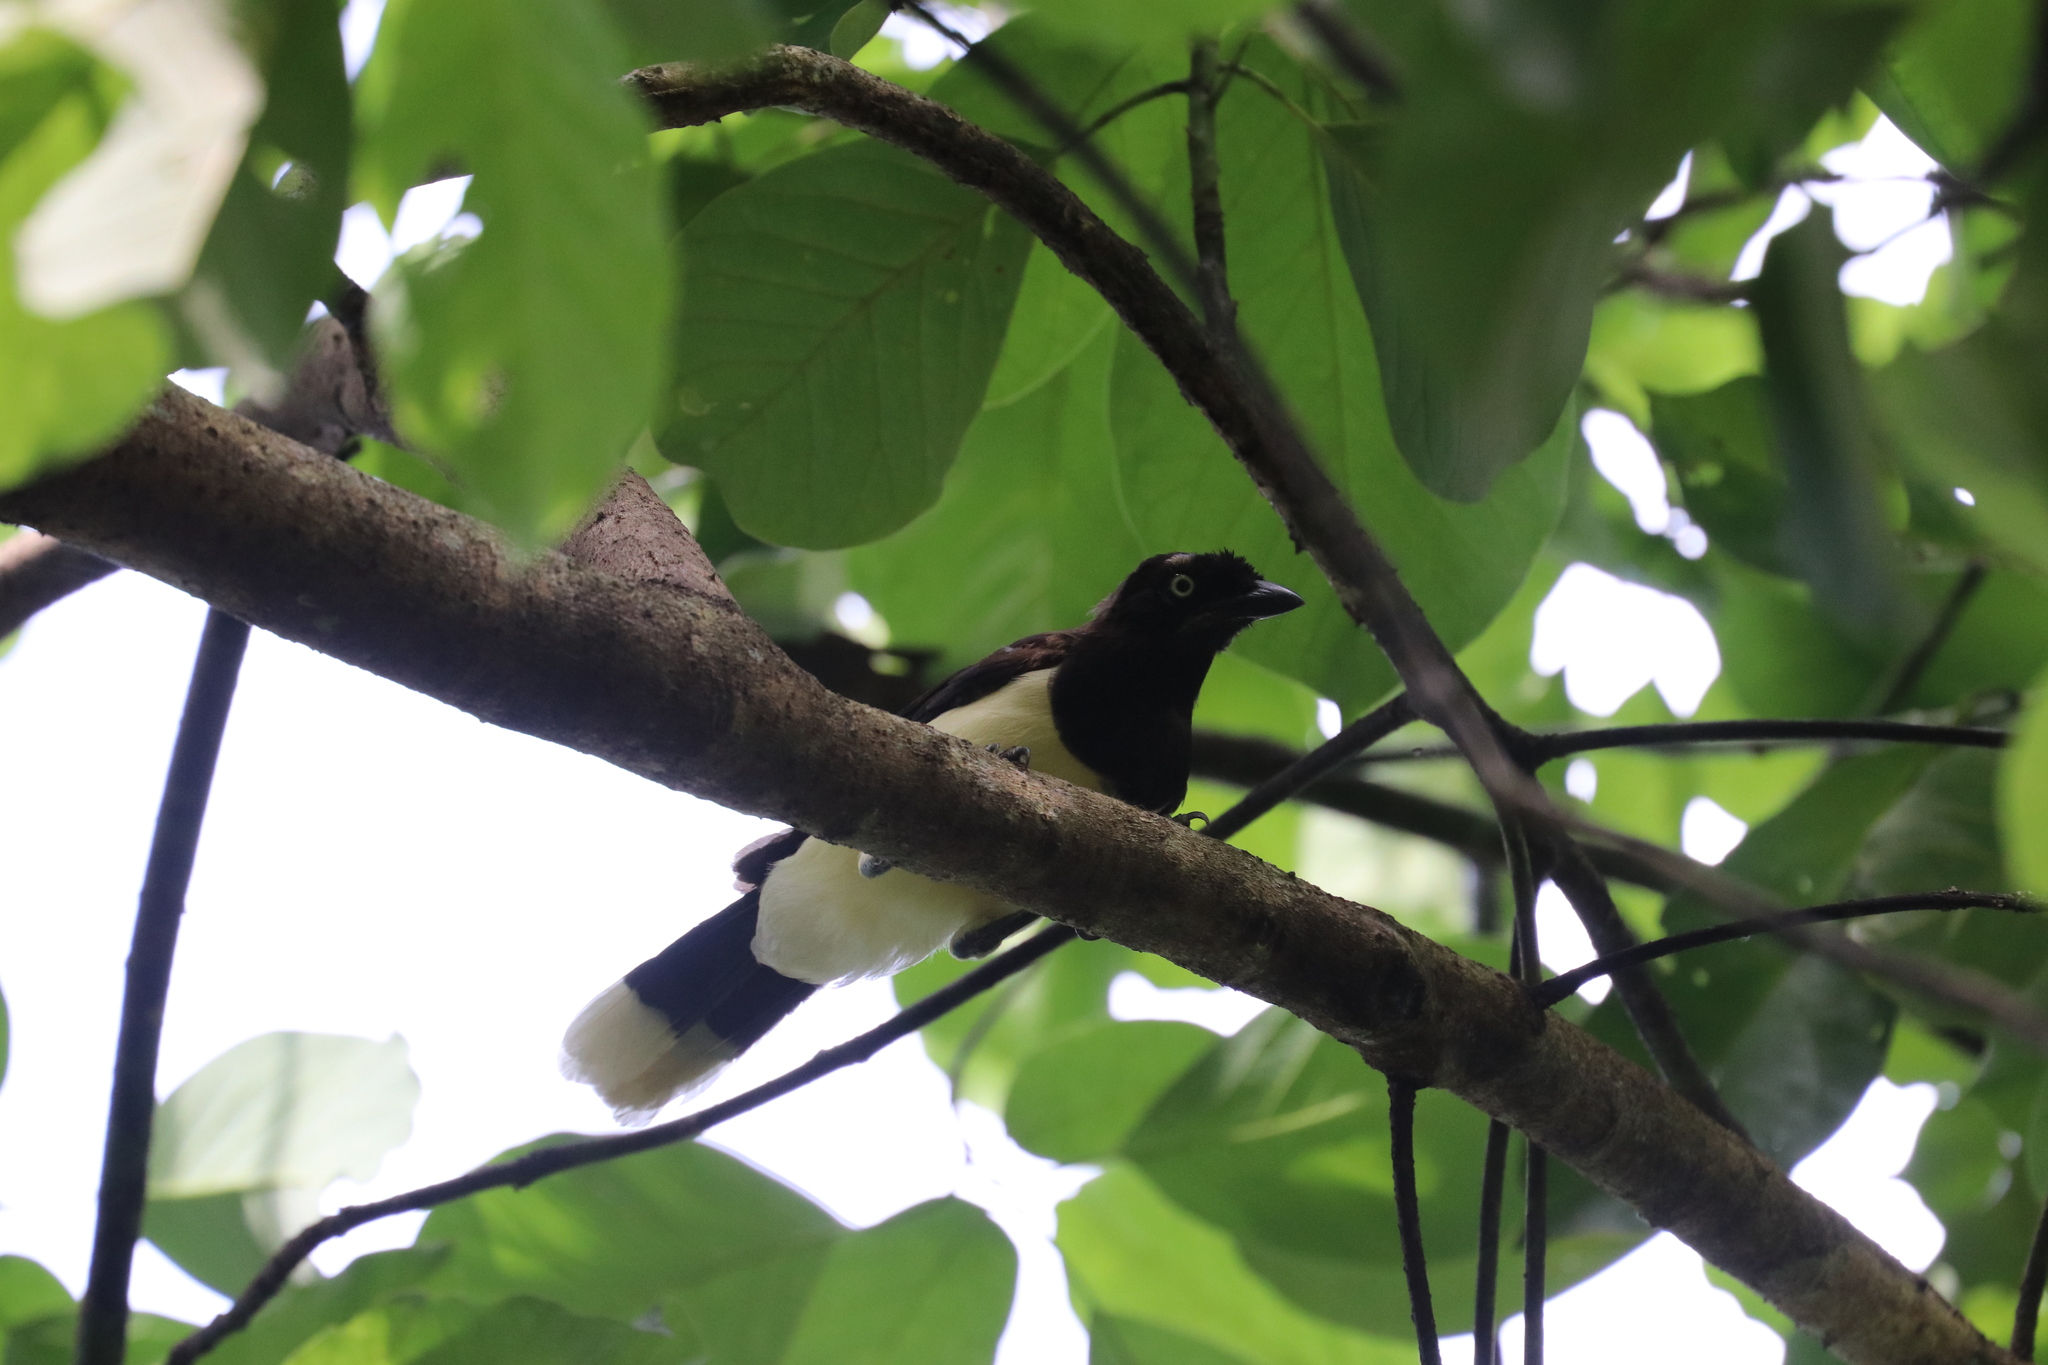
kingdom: Animalia
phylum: Chordata
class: Aves
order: Passeriformes
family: Corvidae
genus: Cyanocorax
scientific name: Cyanocorax affinis
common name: Black-chested jay
